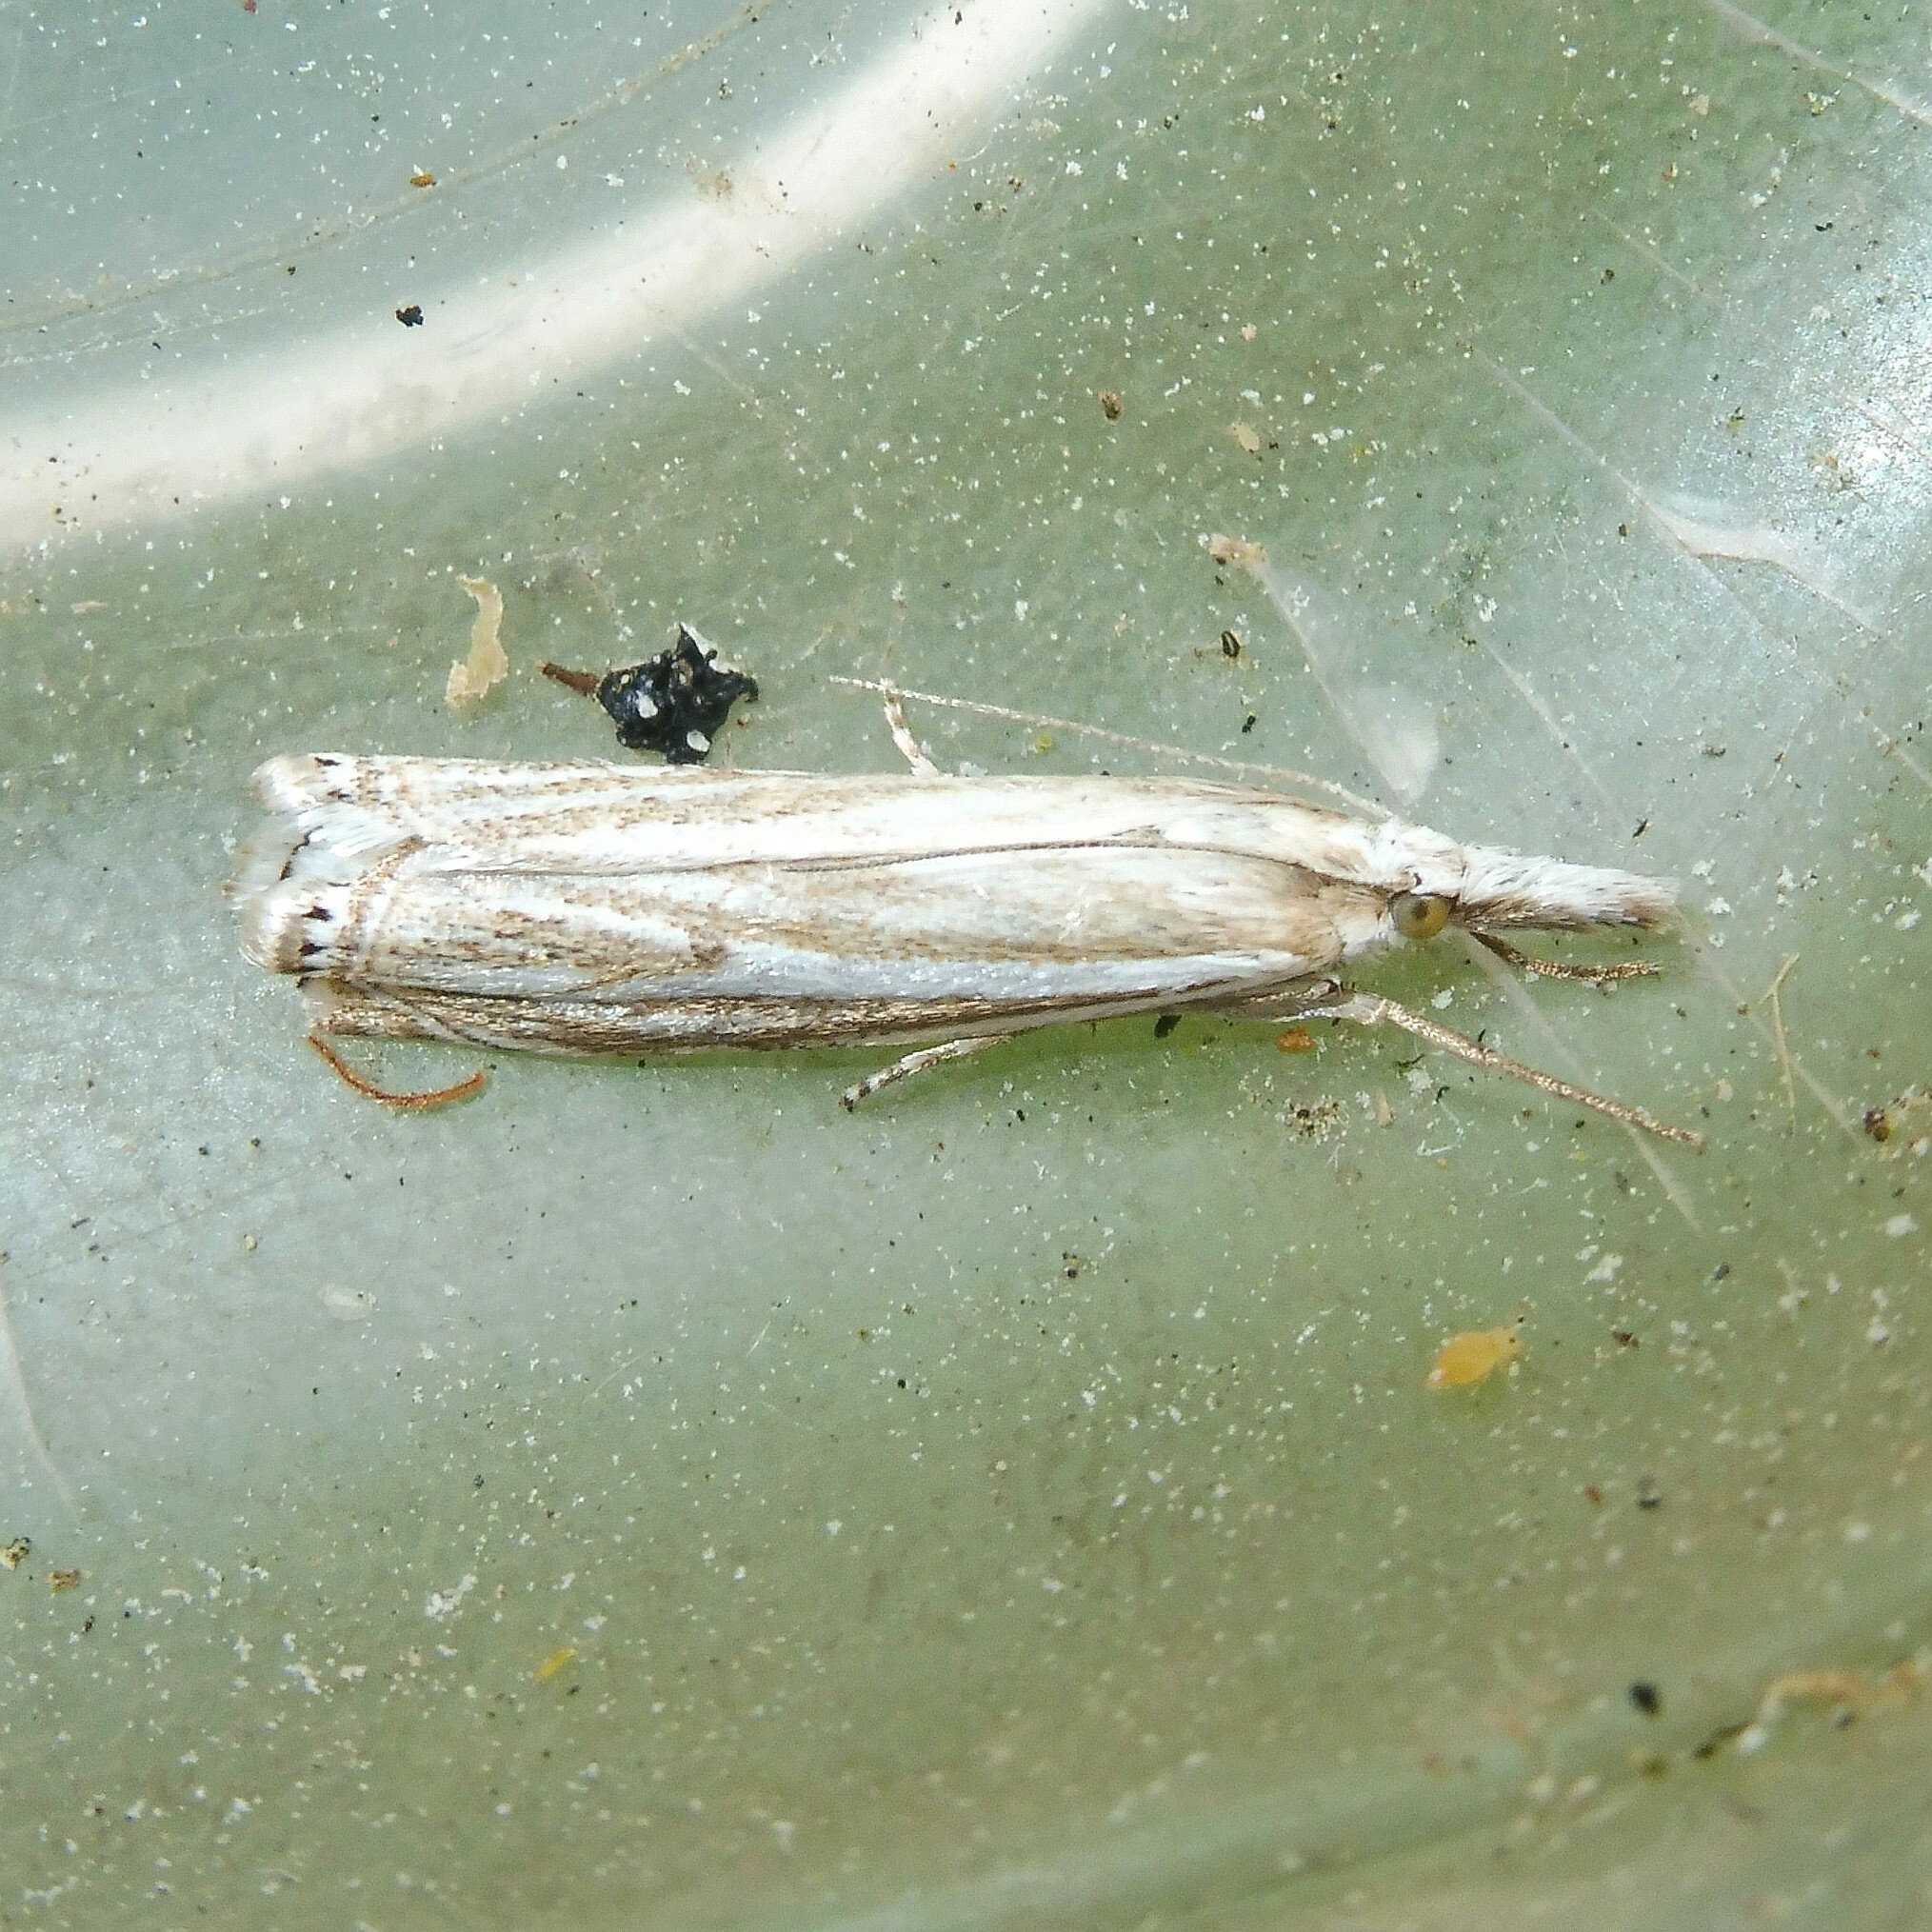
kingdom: Animalia
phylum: Arthropoda
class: Insecta
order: Lepidoptera
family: Crambidae
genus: Crambus
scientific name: Crambus nemorella
